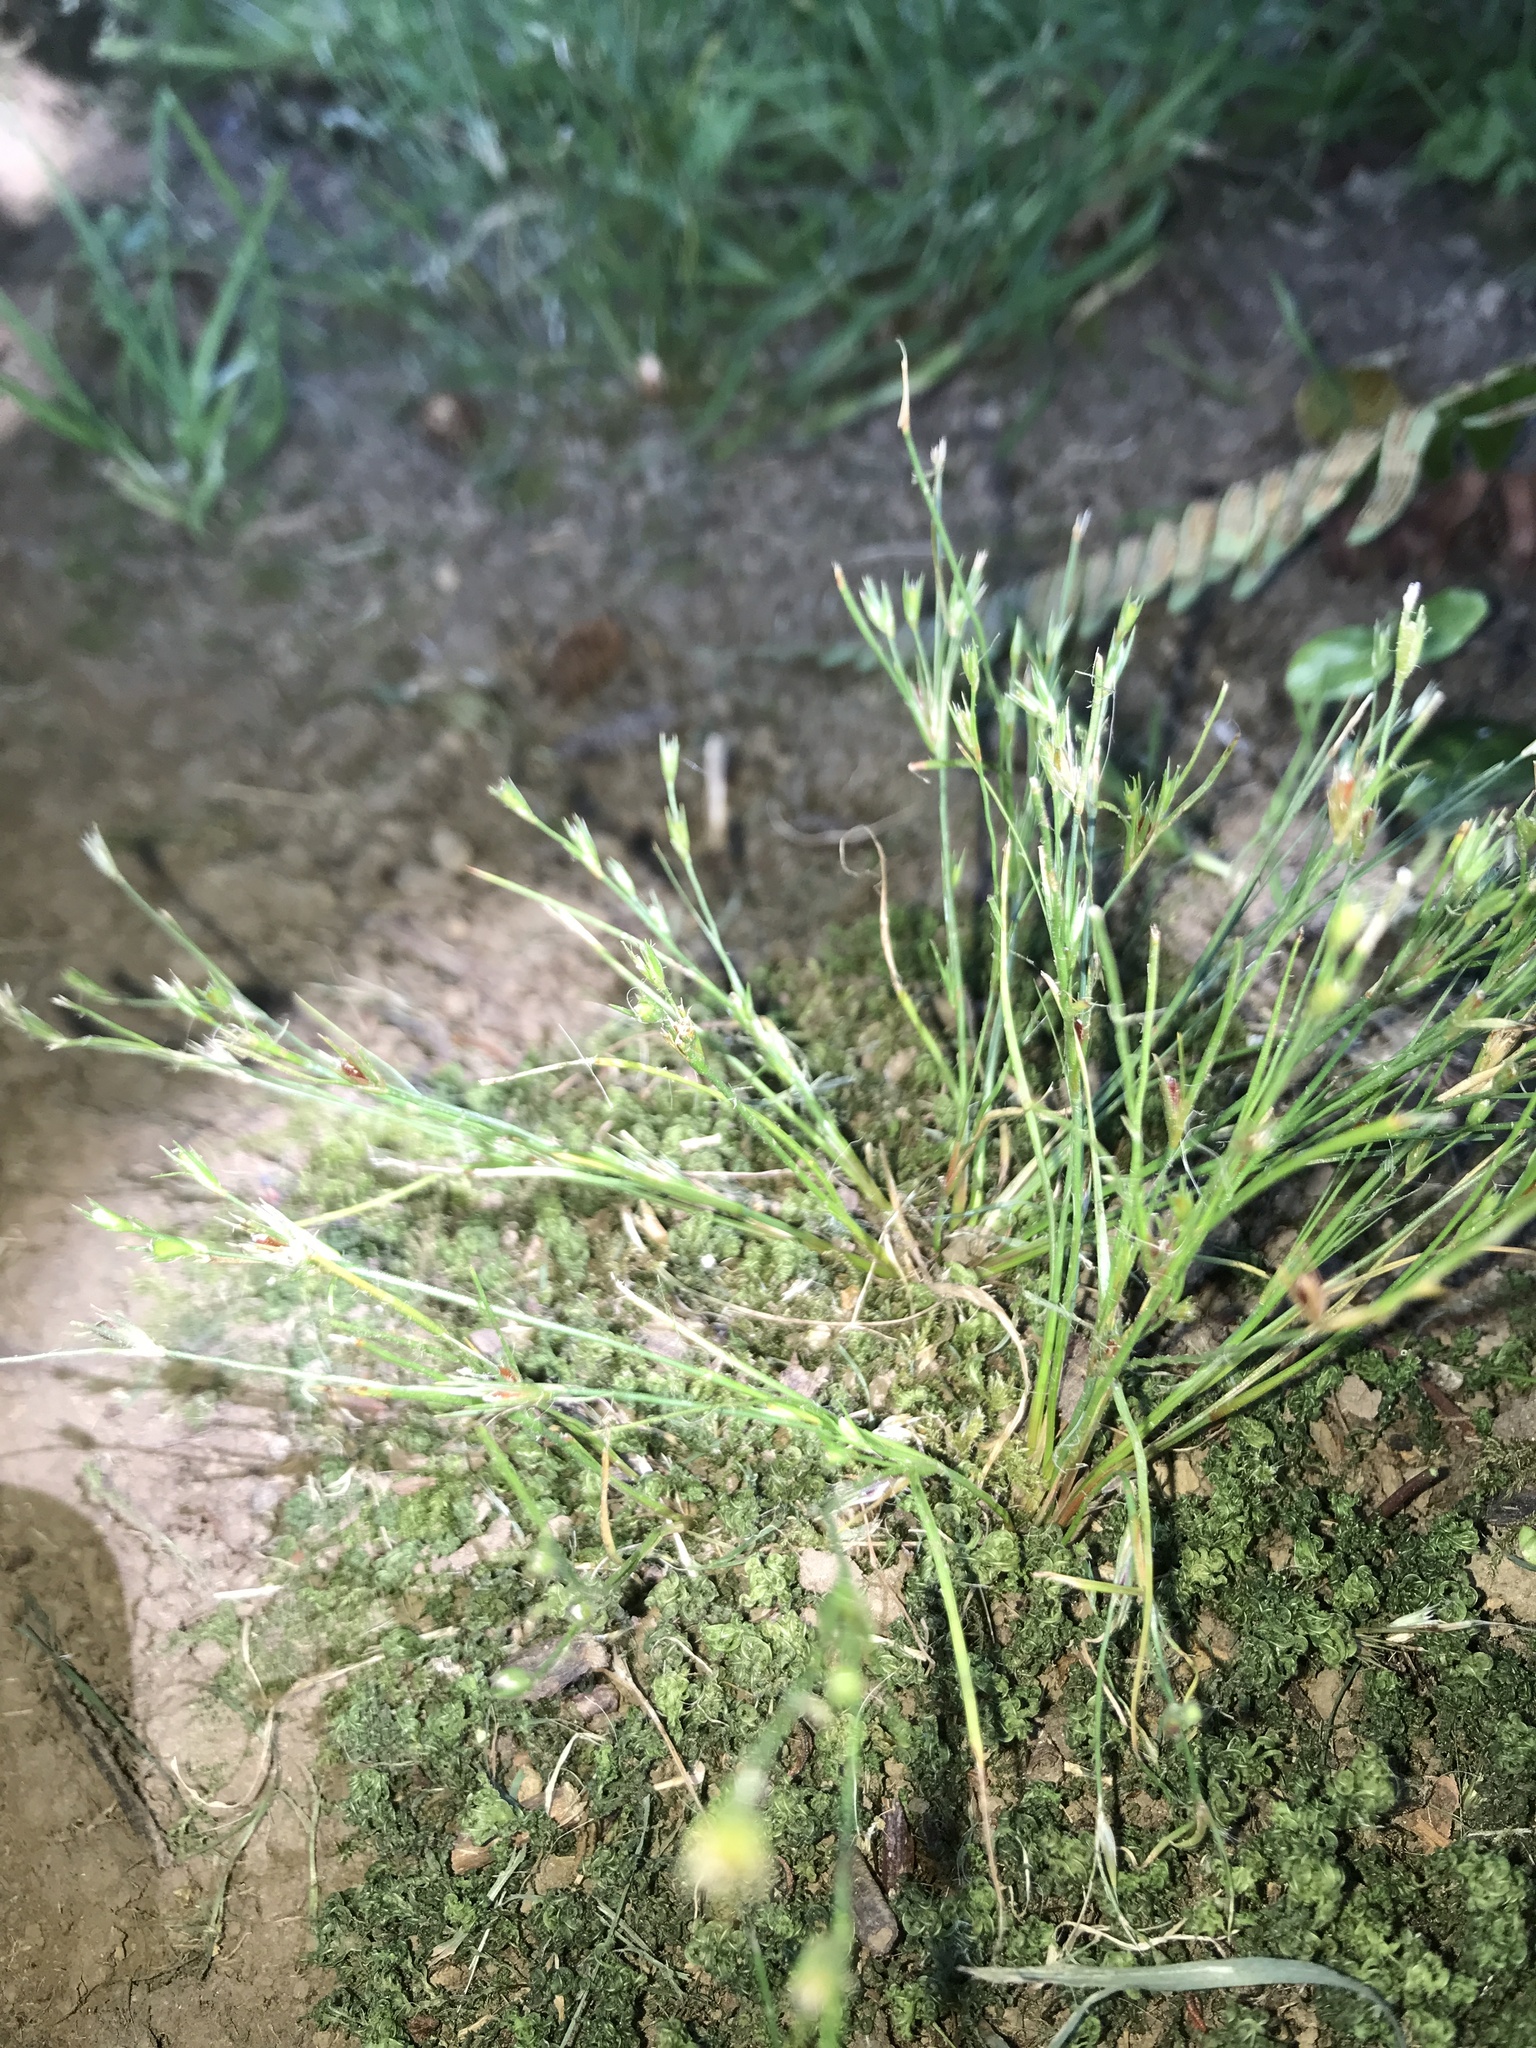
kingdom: Plantae
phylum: Tracheophyta
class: Liliopsida
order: Poales
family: Juncaceae
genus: Juncus
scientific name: Juncus bufonius
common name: Toad rush
